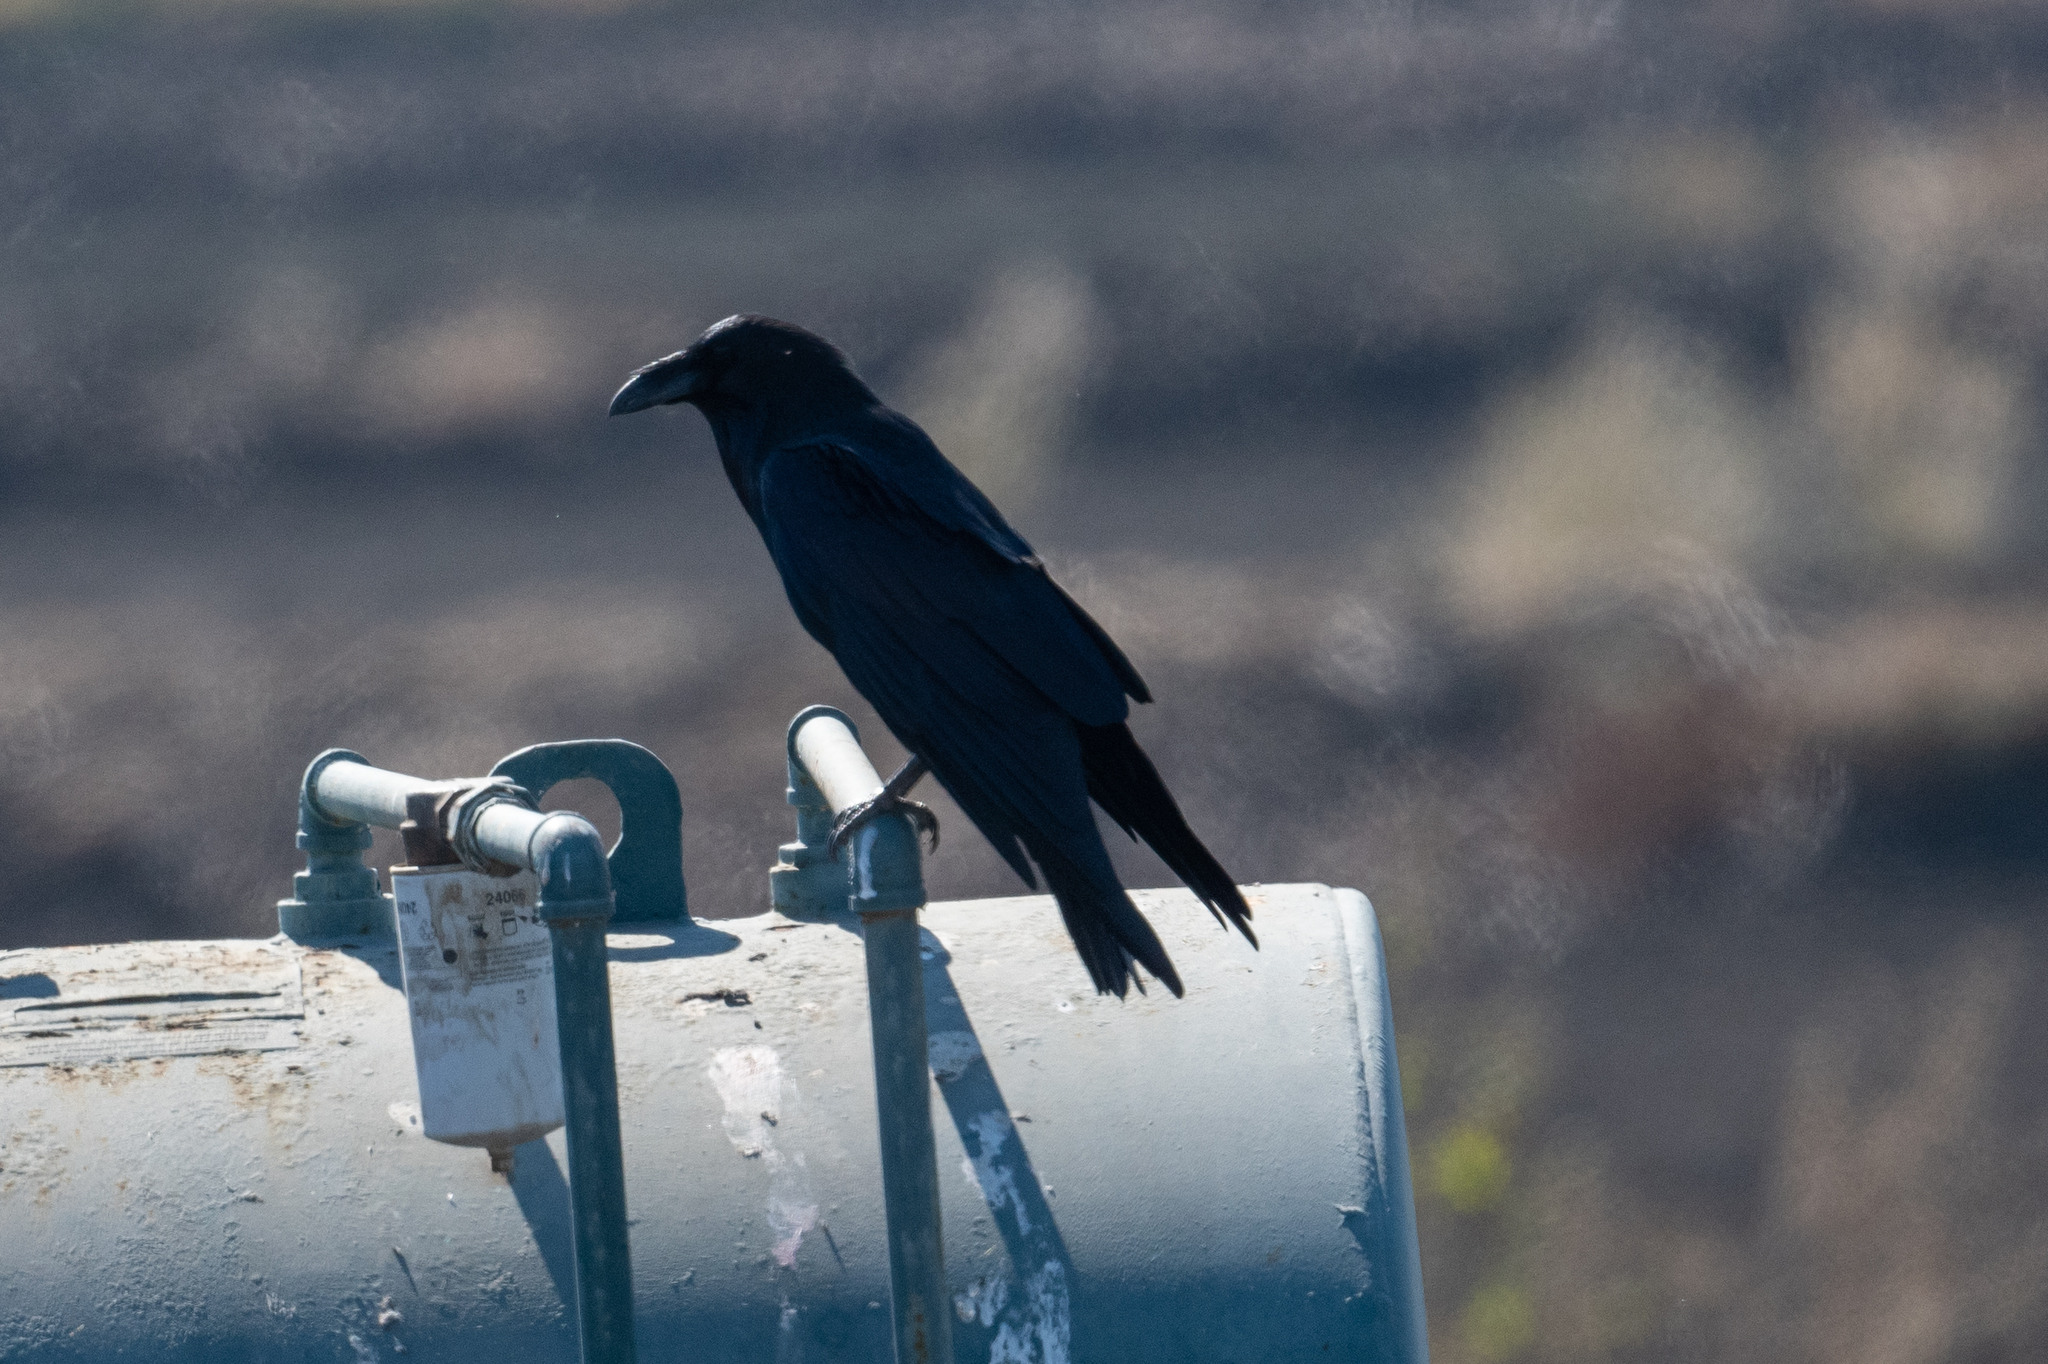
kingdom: Animalia
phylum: Chordata
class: Aves
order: Passeriformes
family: Corvidae
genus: Corvus
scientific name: Corvus corax
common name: Common raven
